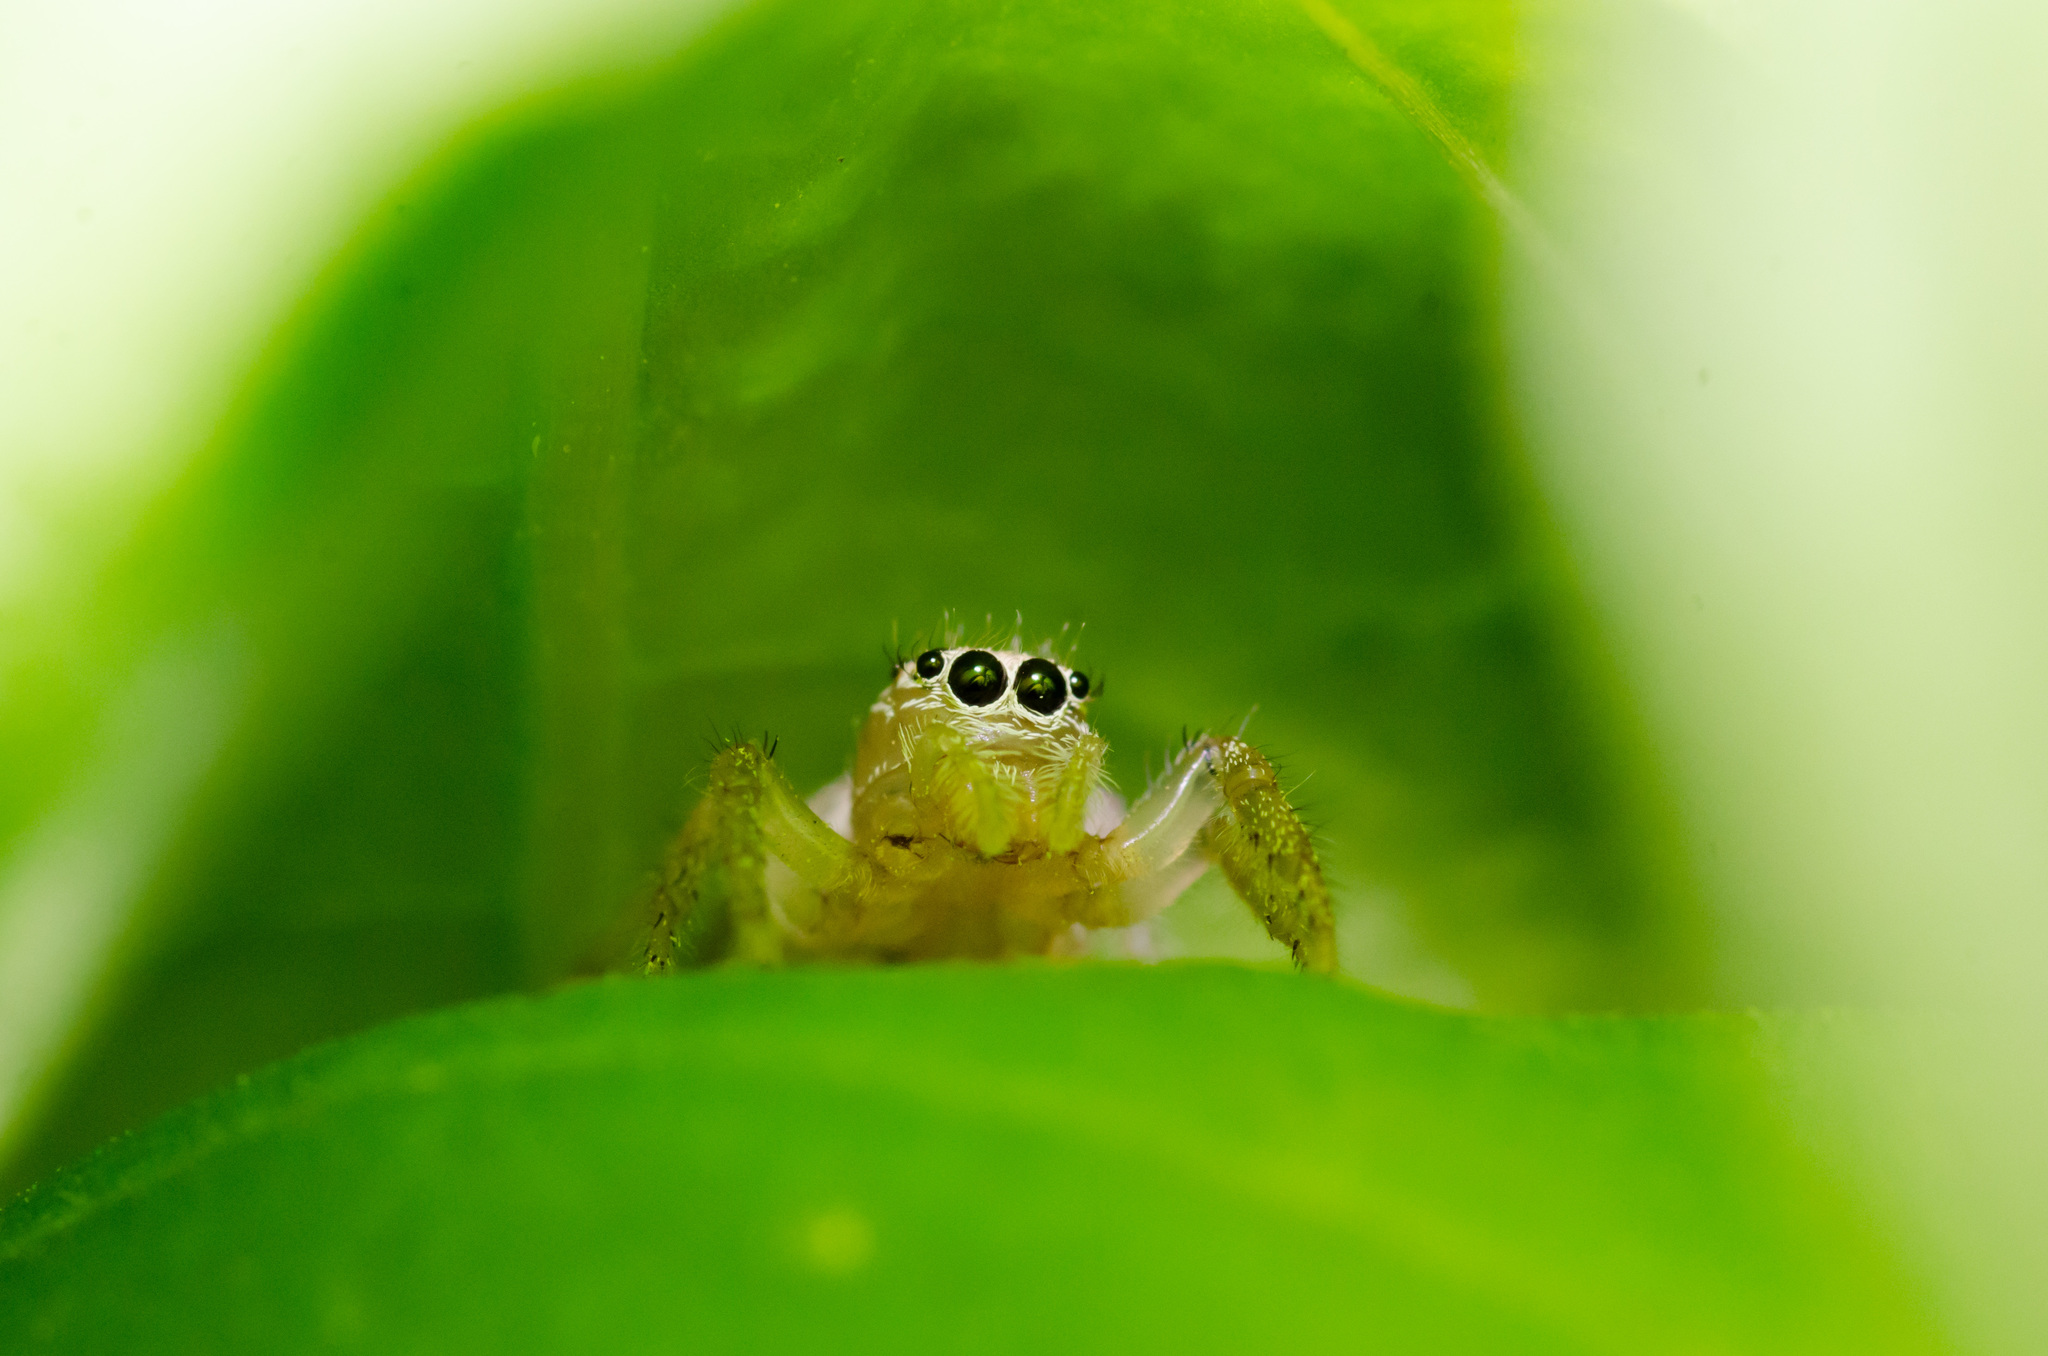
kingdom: Animalia
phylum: Arthropoda
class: Arachnida
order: Araneae
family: Salticidae
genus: Colonus
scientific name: Colonus sylvanus
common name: Jumping spiders
